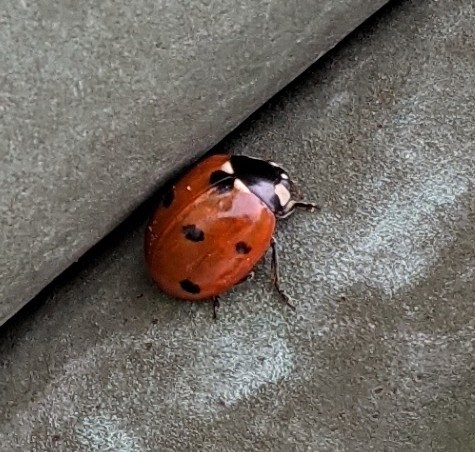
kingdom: Animalia
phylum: Arthropoda
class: Insecta
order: Coleoptera
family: Coccinellidae
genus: Coccinella
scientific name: Coccinella septempunctata
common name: Sevenspotted lady beetle
